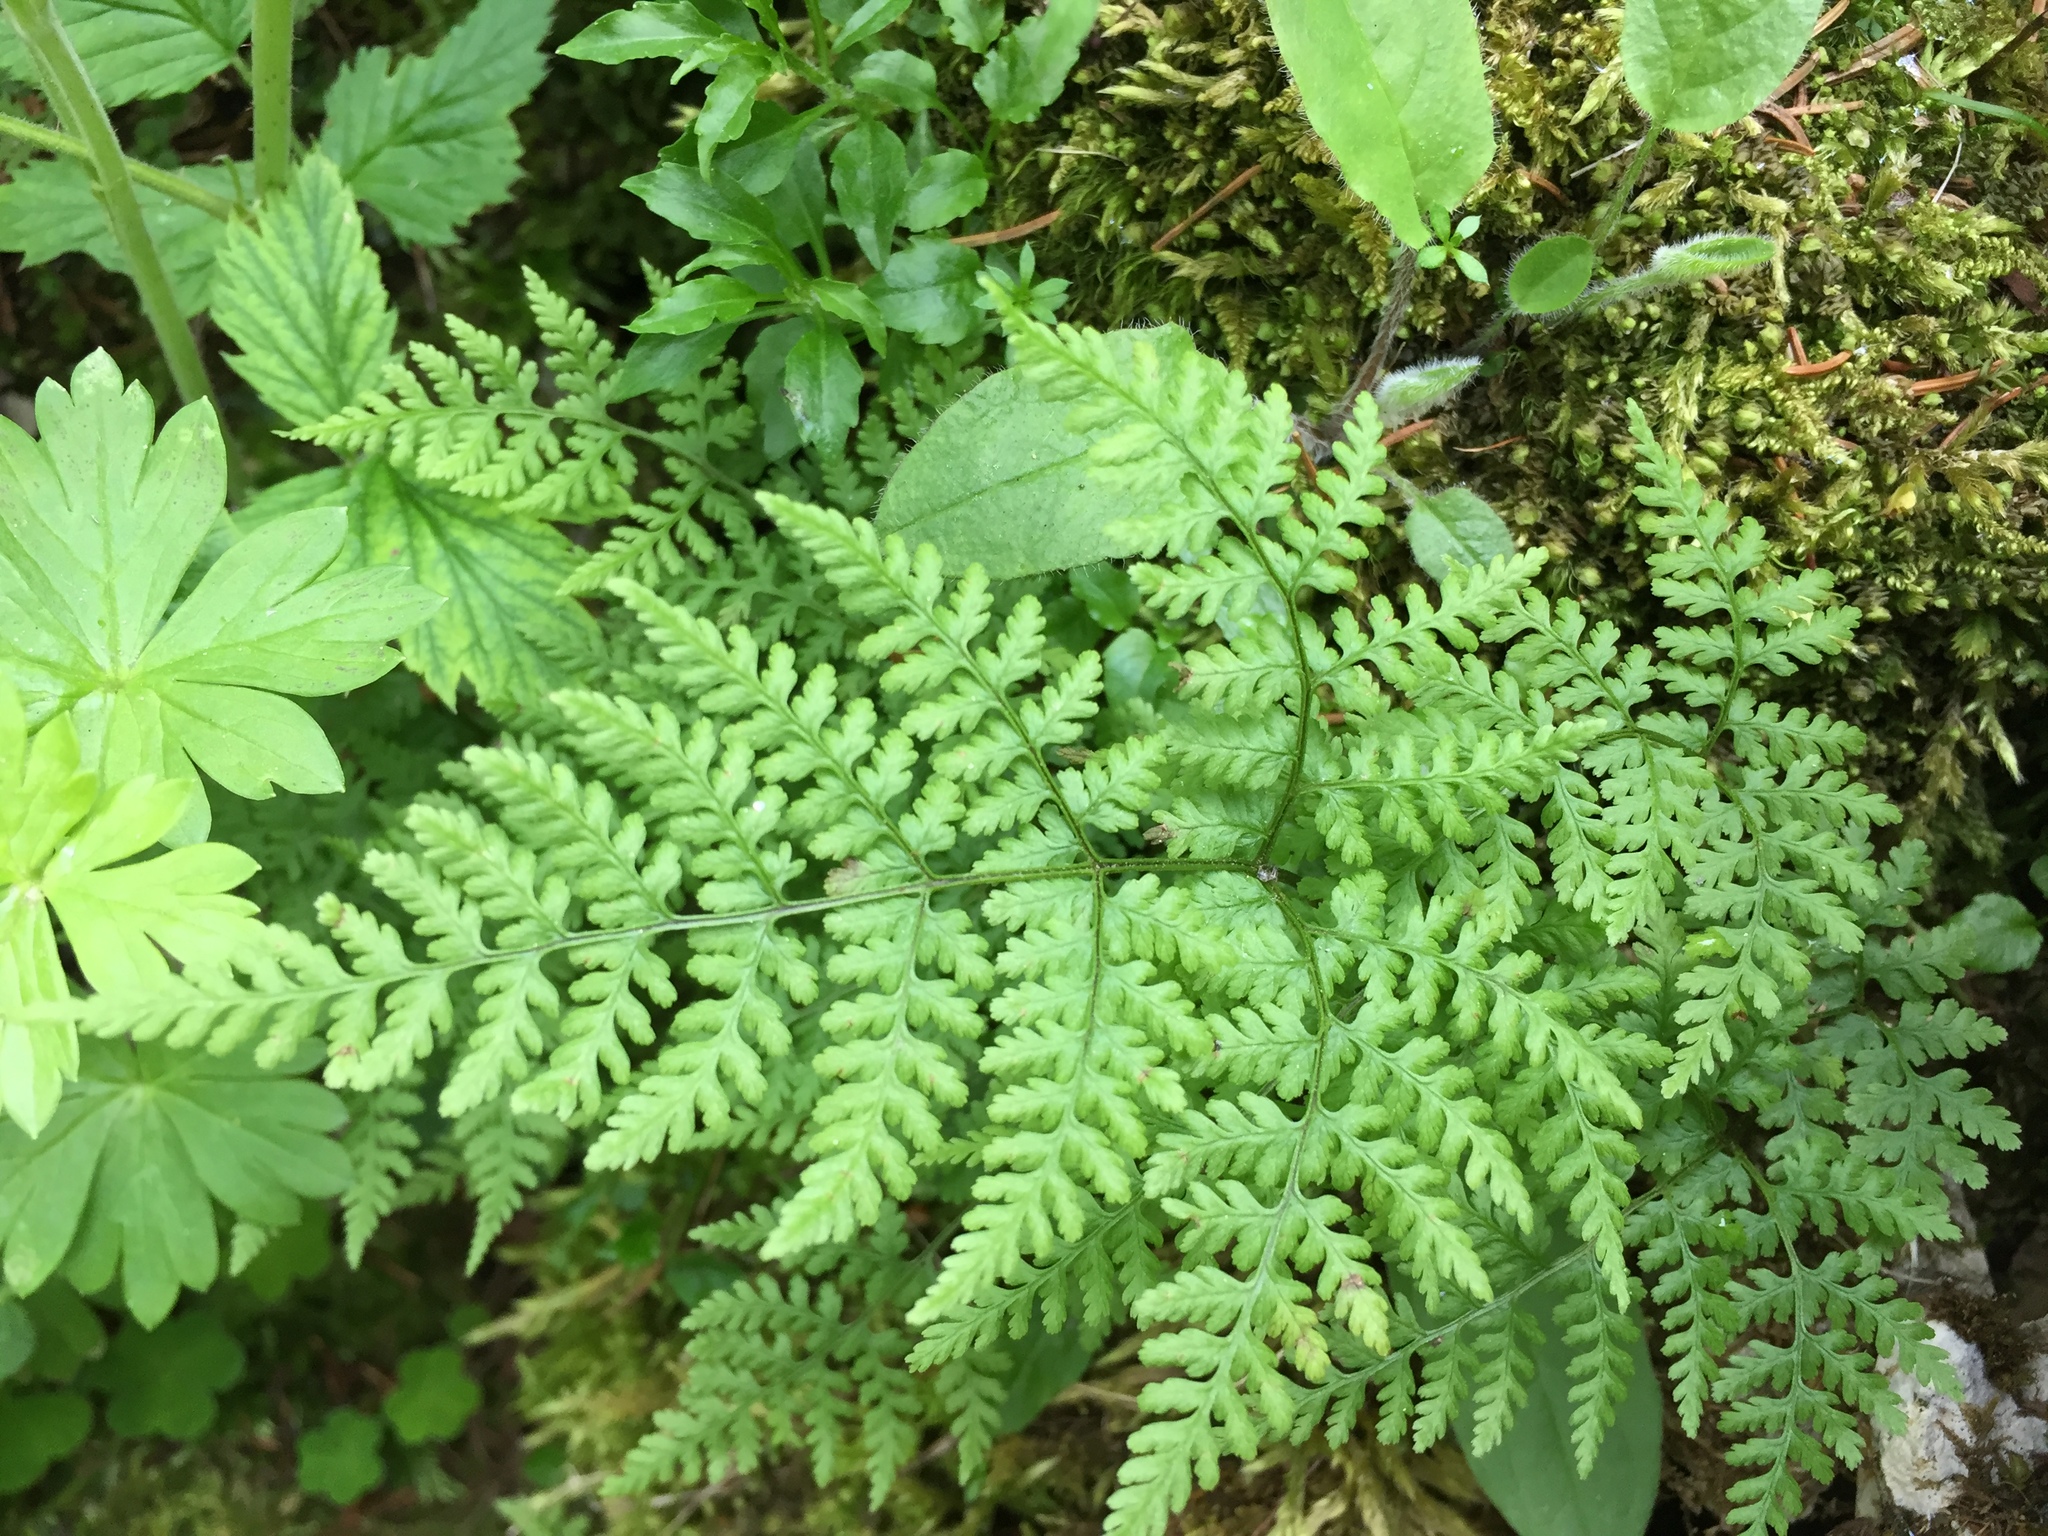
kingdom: Plantae
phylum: Tracheophyta
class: Polypodiopsida
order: Polypodiales
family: Cystopteridaceae
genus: Cystopteris
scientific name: Cystopteris montana
